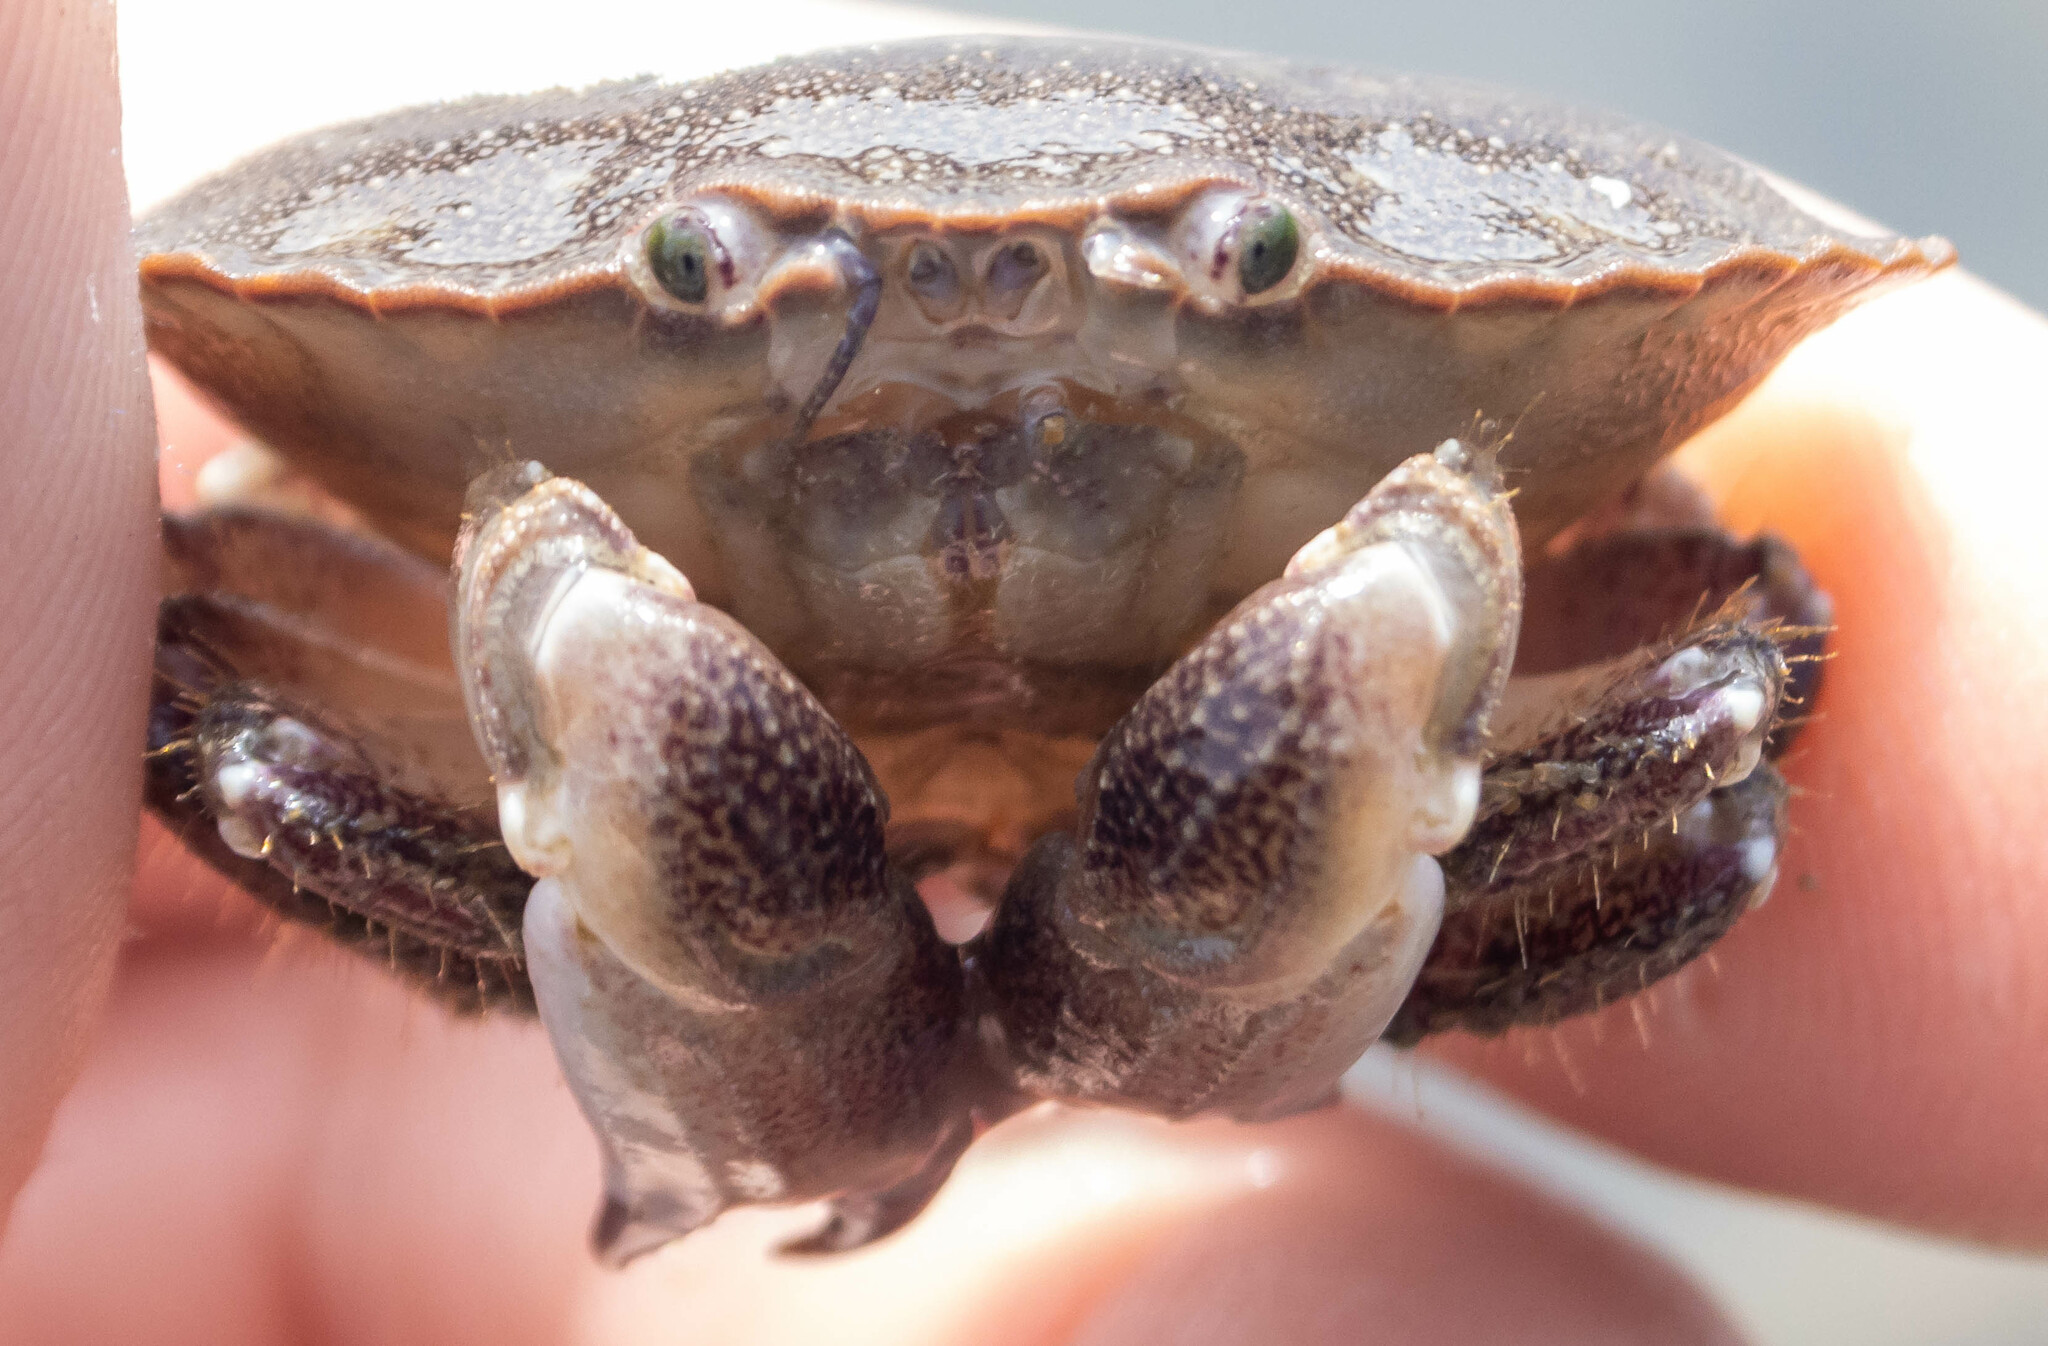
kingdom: Animalia
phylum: Arthropoda
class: Malacostraca
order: Decapoda
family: Cancridae
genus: Cancer
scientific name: Cancer pagurus
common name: Edible crab
